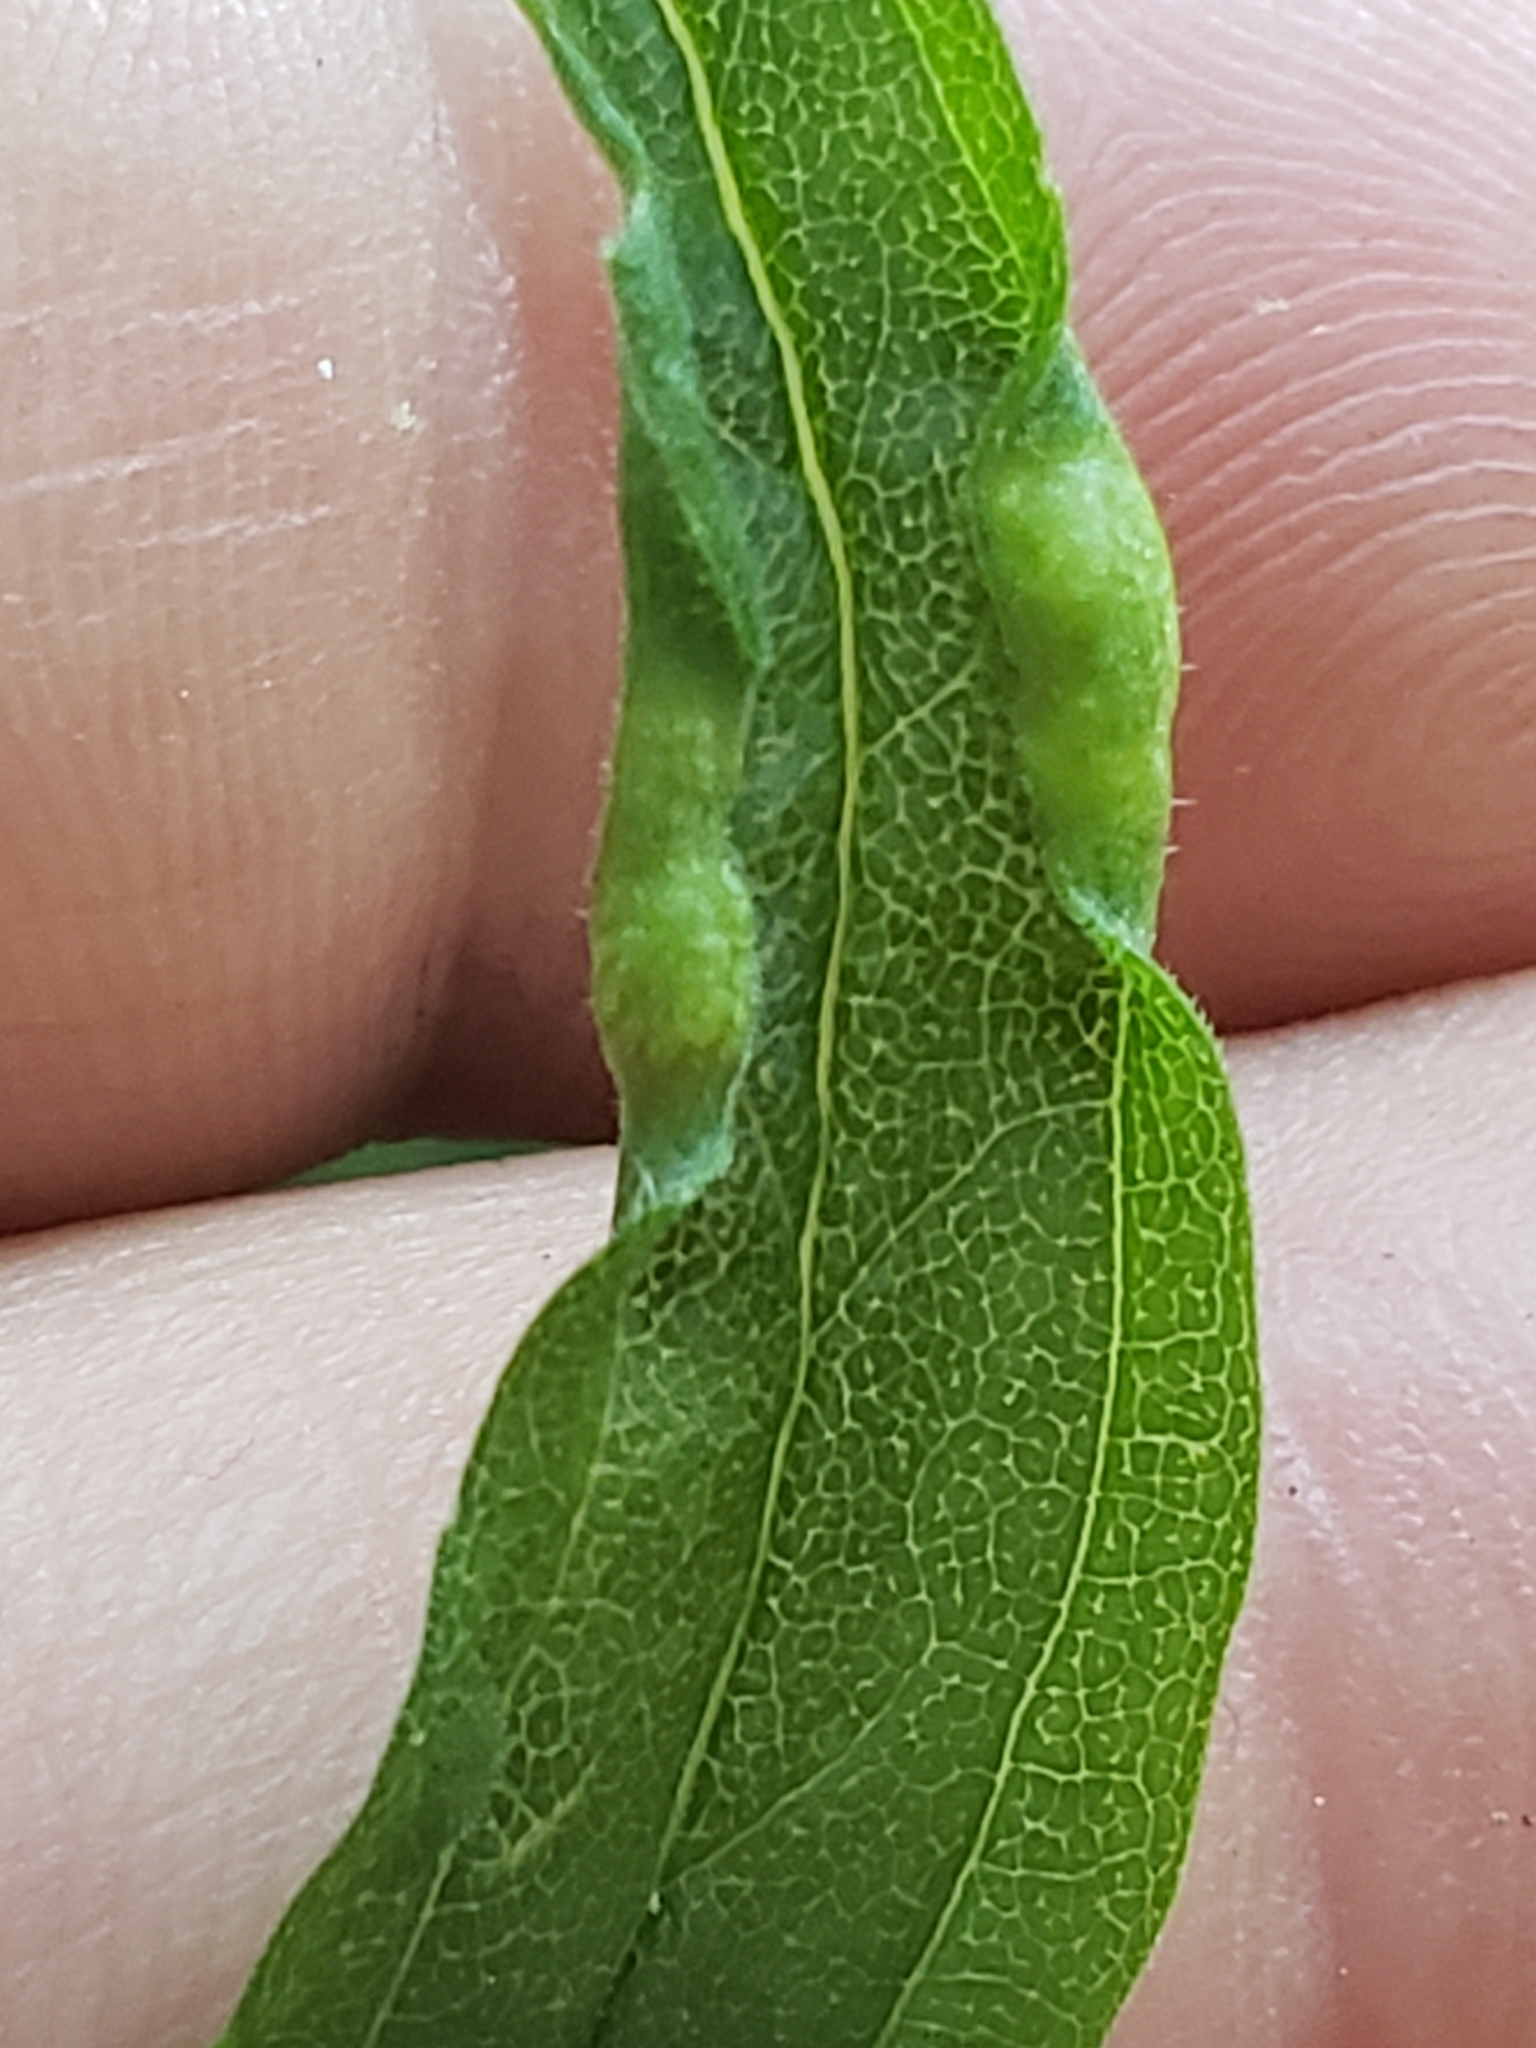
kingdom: Animalia
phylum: Arthropoda
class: Insecta
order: Diptera
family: Cecidomyiidae
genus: Asphondylia
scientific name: Asphondylia solidaginis
